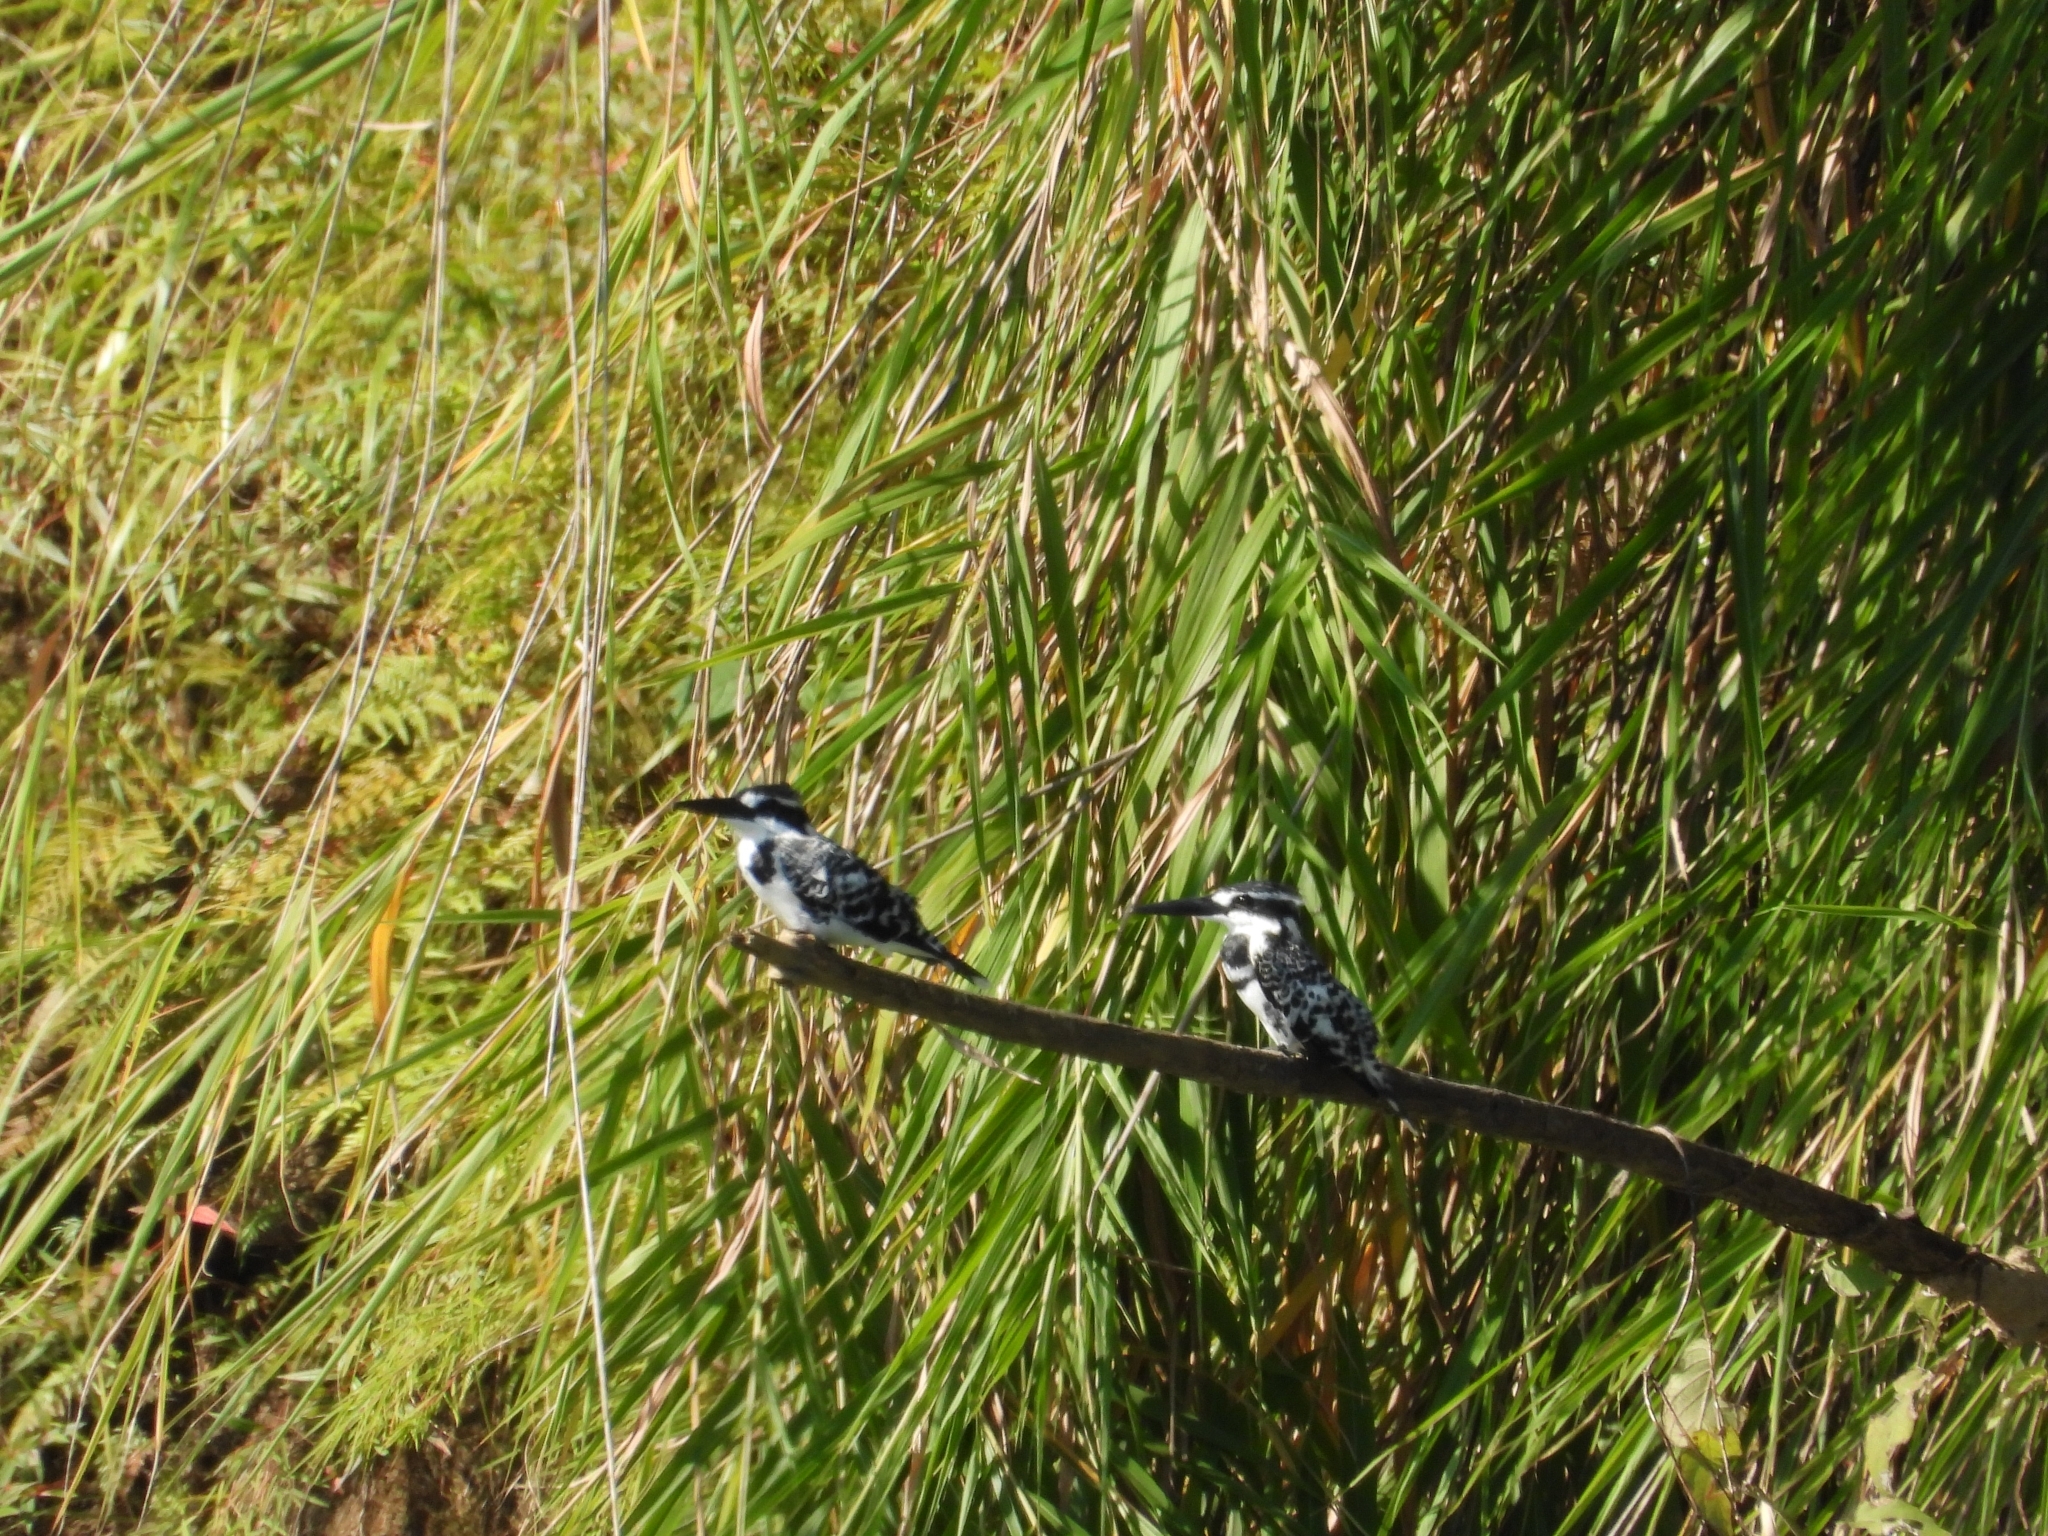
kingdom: Animalia
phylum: Chordata
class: Aves
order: Coraciiformes
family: Alcedinidae
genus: Ceryle
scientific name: Ceryle rudis
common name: Pied kingfisher
